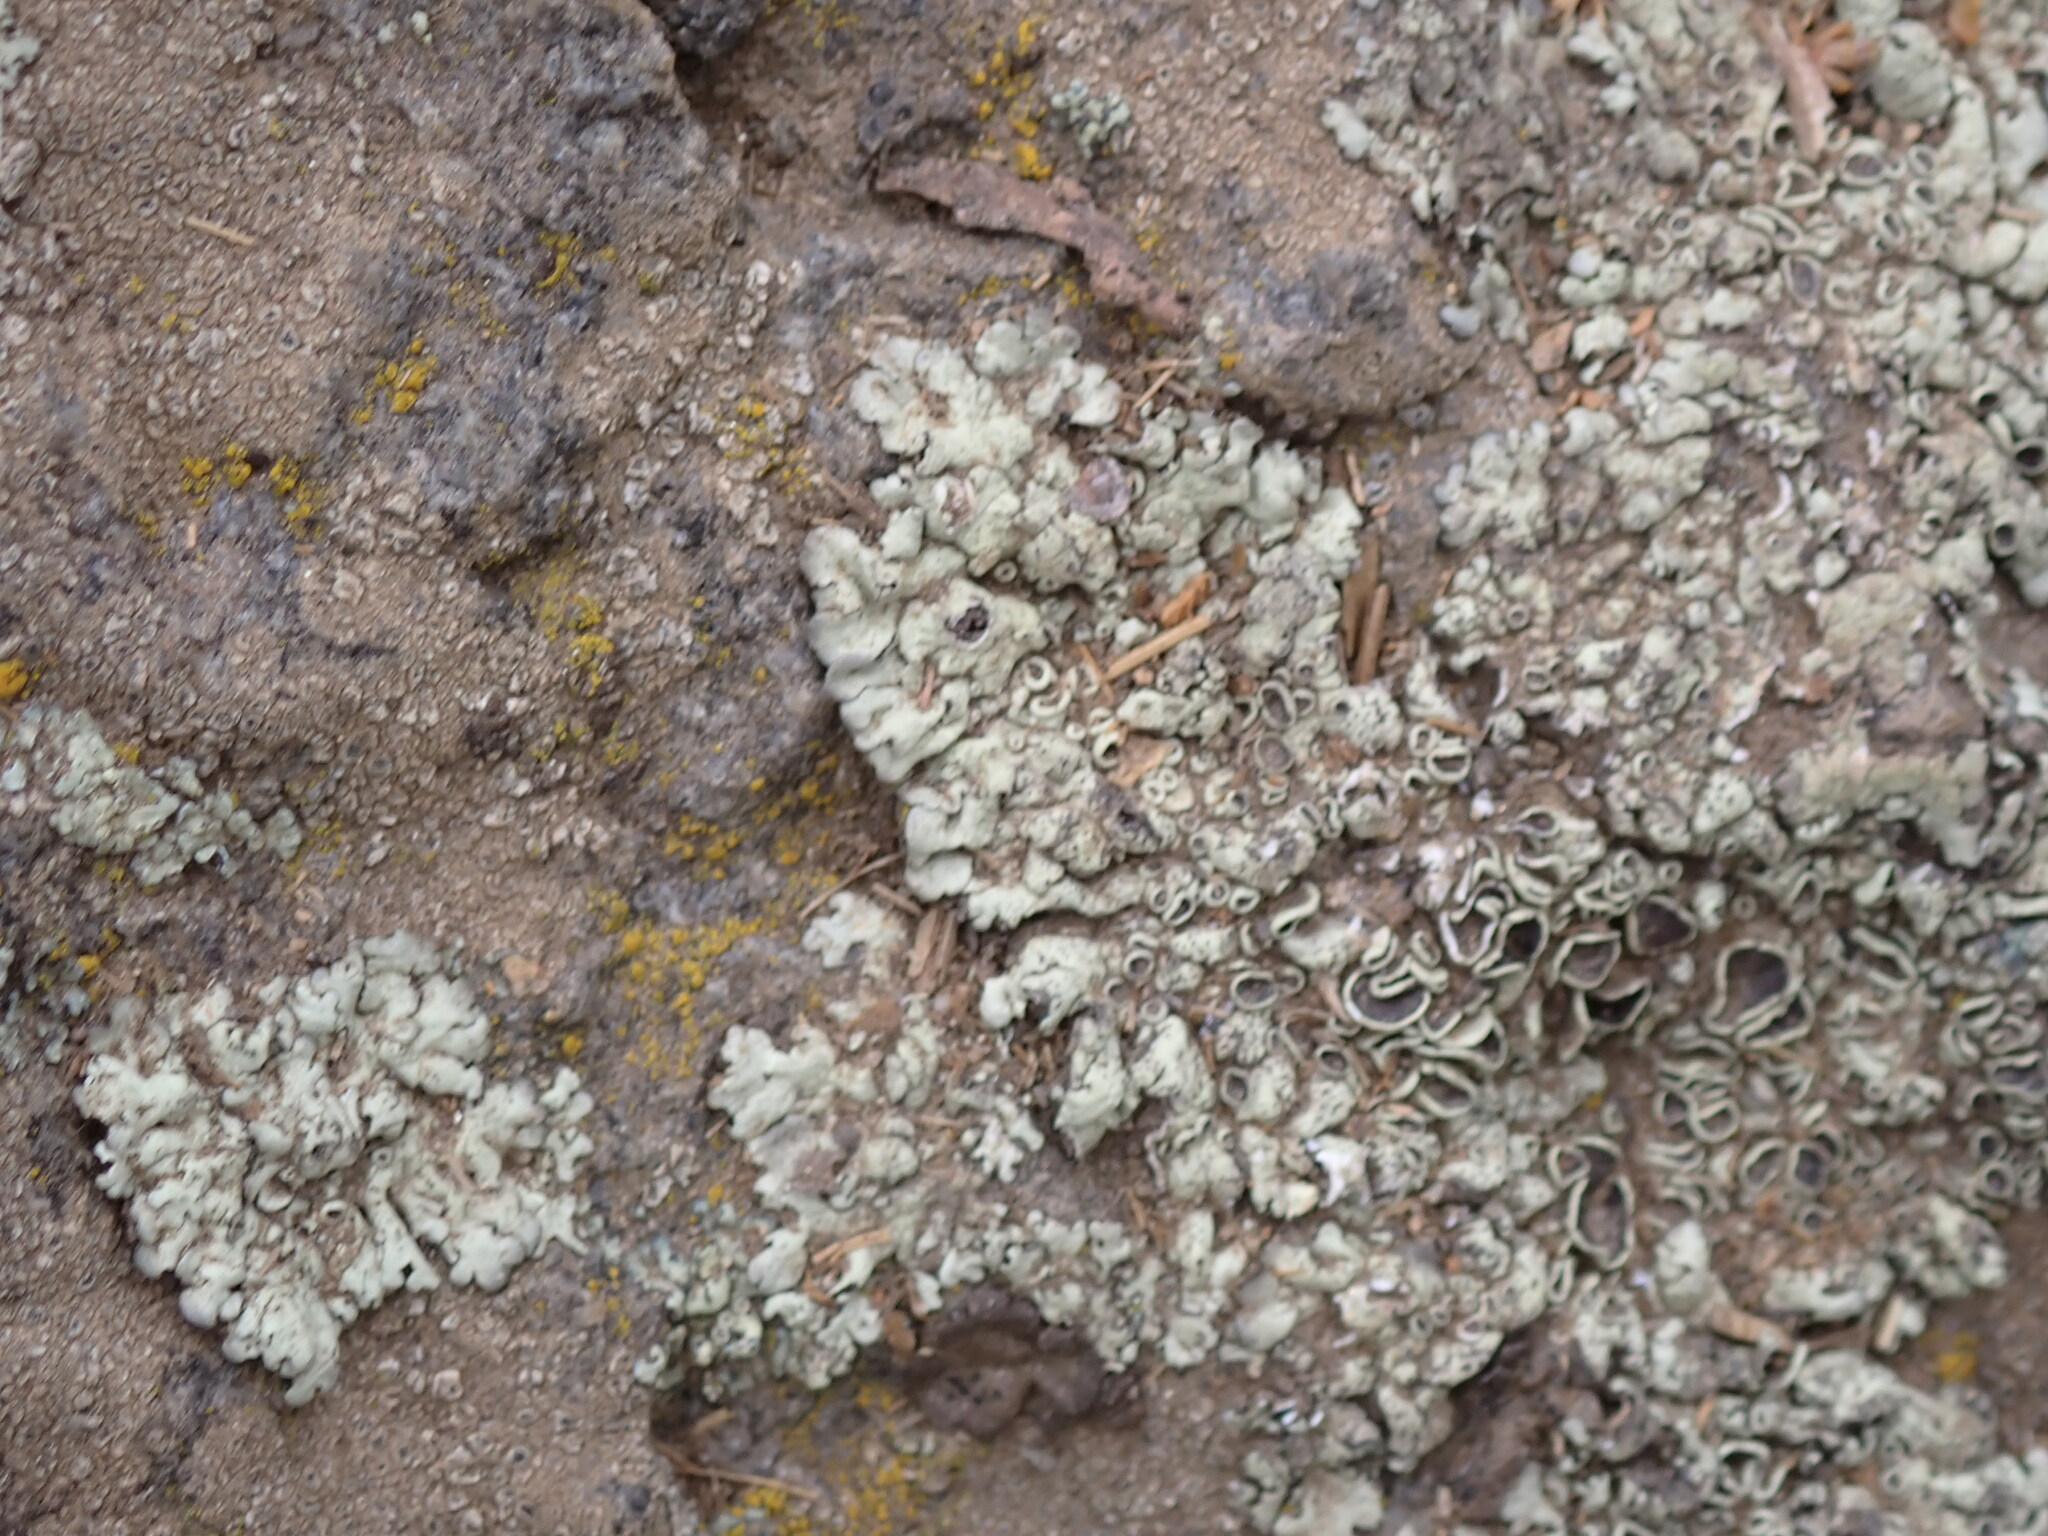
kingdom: Fungi
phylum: Ascomycota
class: Lecanoromycetes
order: Lecanorales
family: Parmeliaceae
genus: Xanthoparmelia
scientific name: Xanthoparmelia
